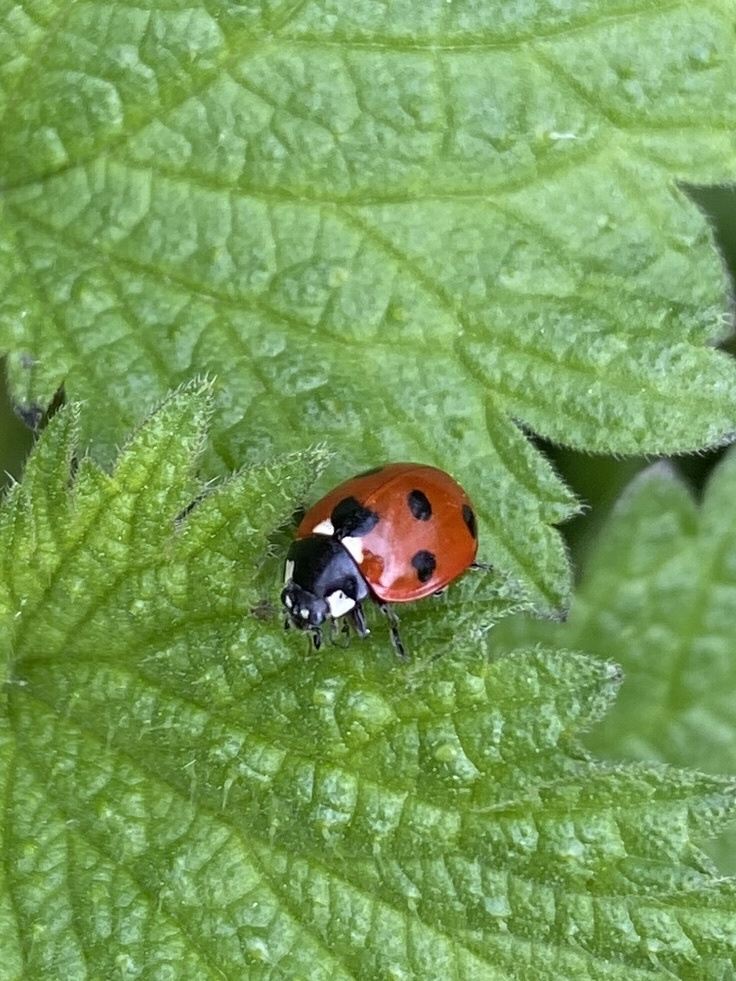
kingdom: Animalia
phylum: Arthropoda
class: Insecta
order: Coleoptera
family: Coccinellidae
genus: Coccinella
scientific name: Coccinella septempunctata
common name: Sevenspotted lady beetle
